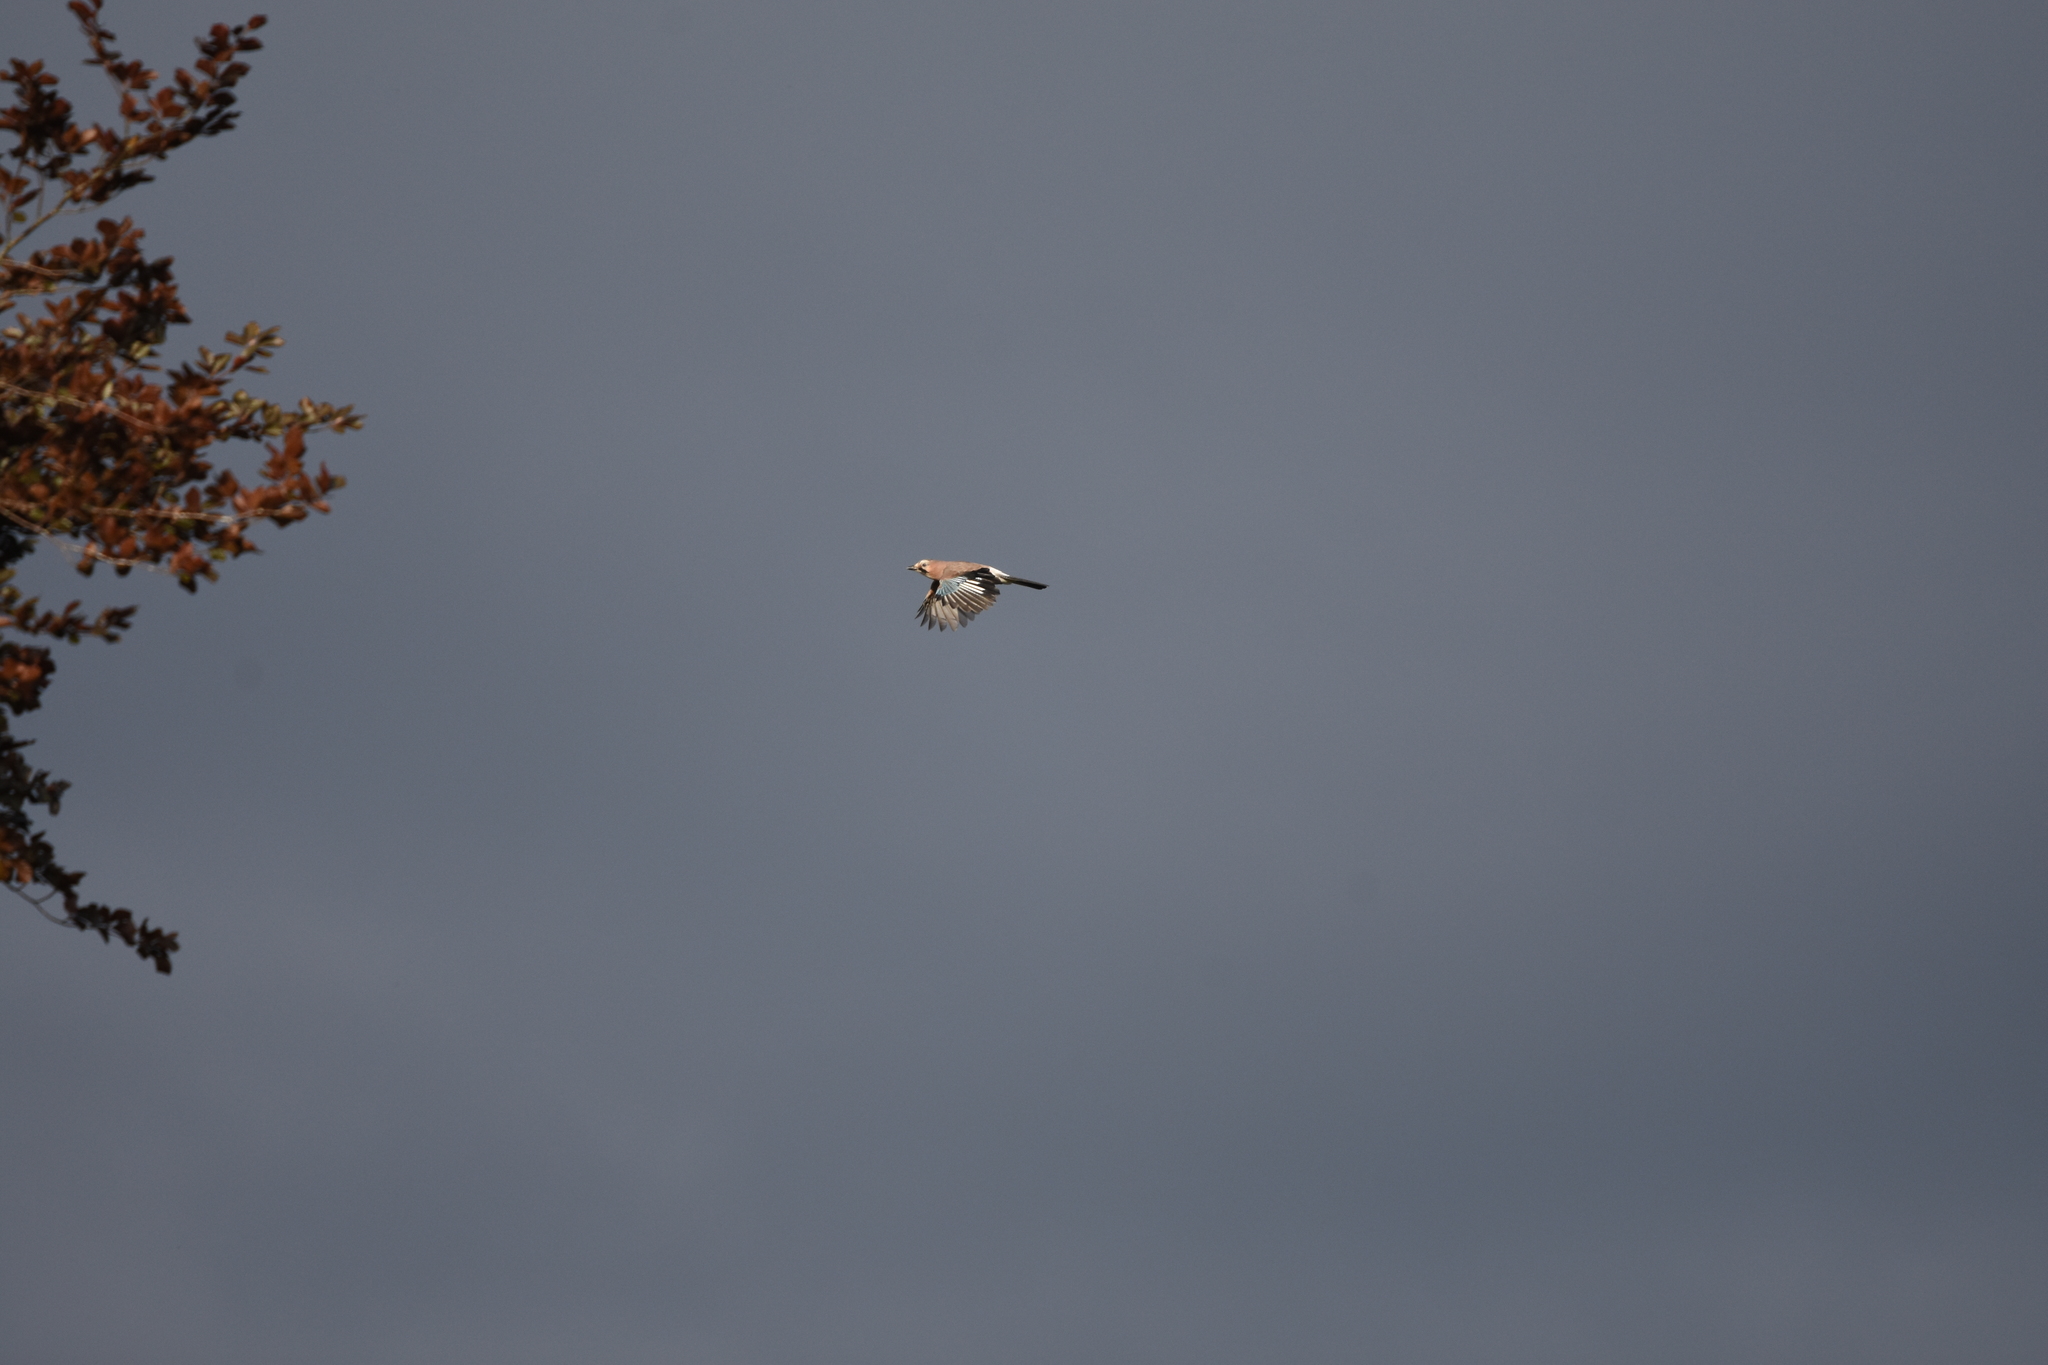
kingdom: Animalia
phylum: Chordata
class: Aves
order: Passeriformes
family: Corvidae
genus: Garrulus
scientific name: Garrulus glandarius
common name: Eurasian jay
